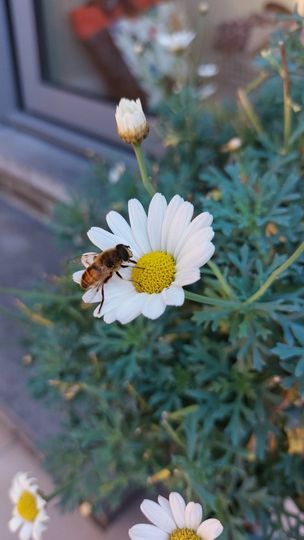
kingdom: Animalia
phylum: Arthropoda
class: Insecta
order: Diptera
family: Syrphidae
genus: Eristalis
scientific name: Eristalis tenax
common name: Drone fly
